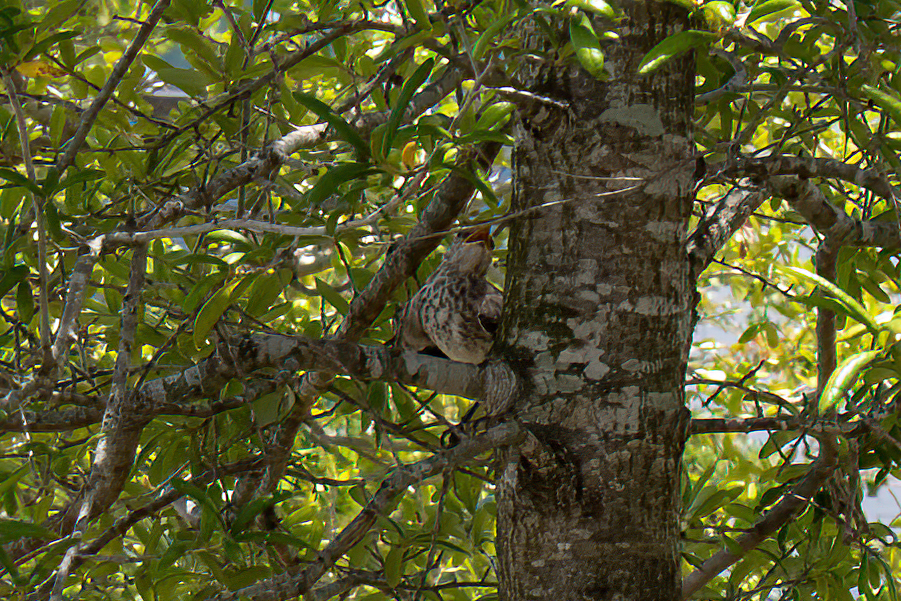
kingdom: Animalia
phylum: Chordata
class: Aves
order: Passeriformes
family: Mimidae
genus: Mimus
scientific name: Mimus polyglottos
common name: Northern mockingbird
